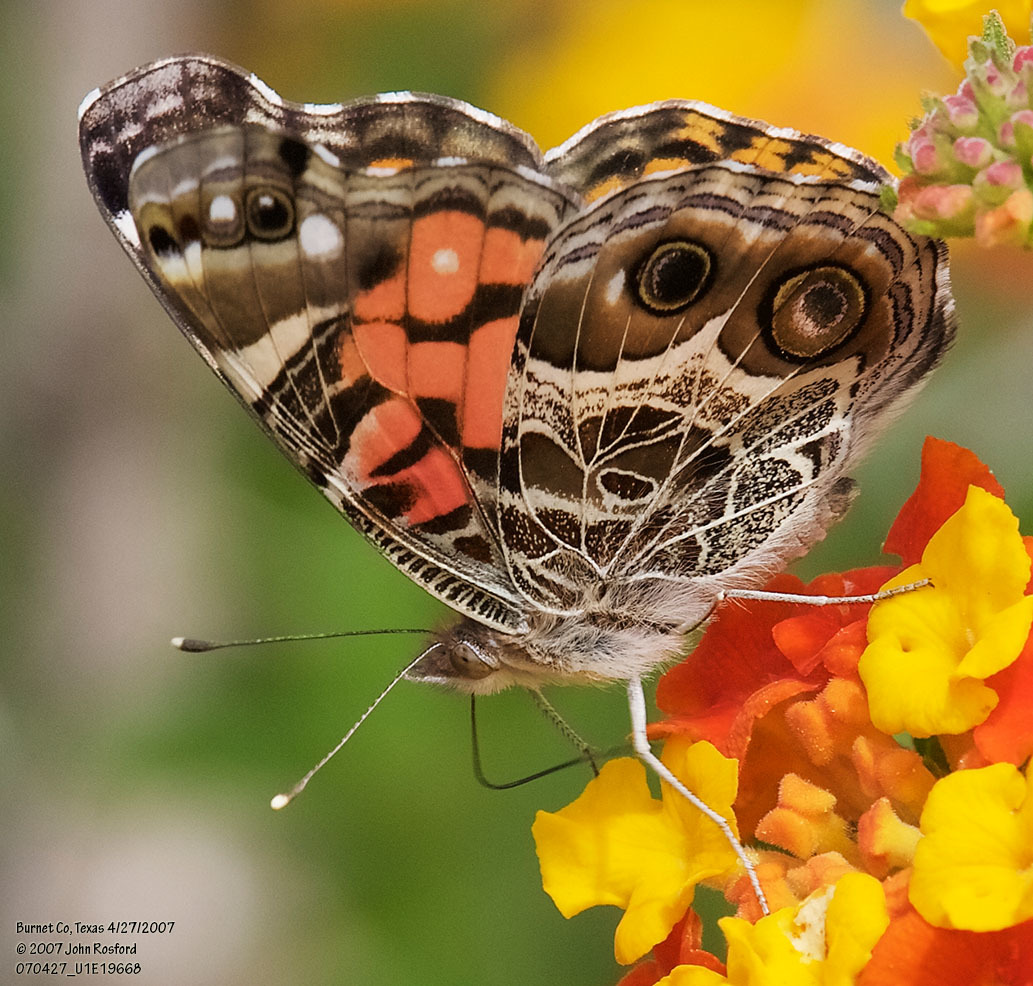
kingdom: Animalia
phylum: Arthropoda
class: Insecta
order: Lepidoptera
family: Nymphalidae
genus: Vanessa
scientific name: Vanessa virginiensis
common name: American lady
